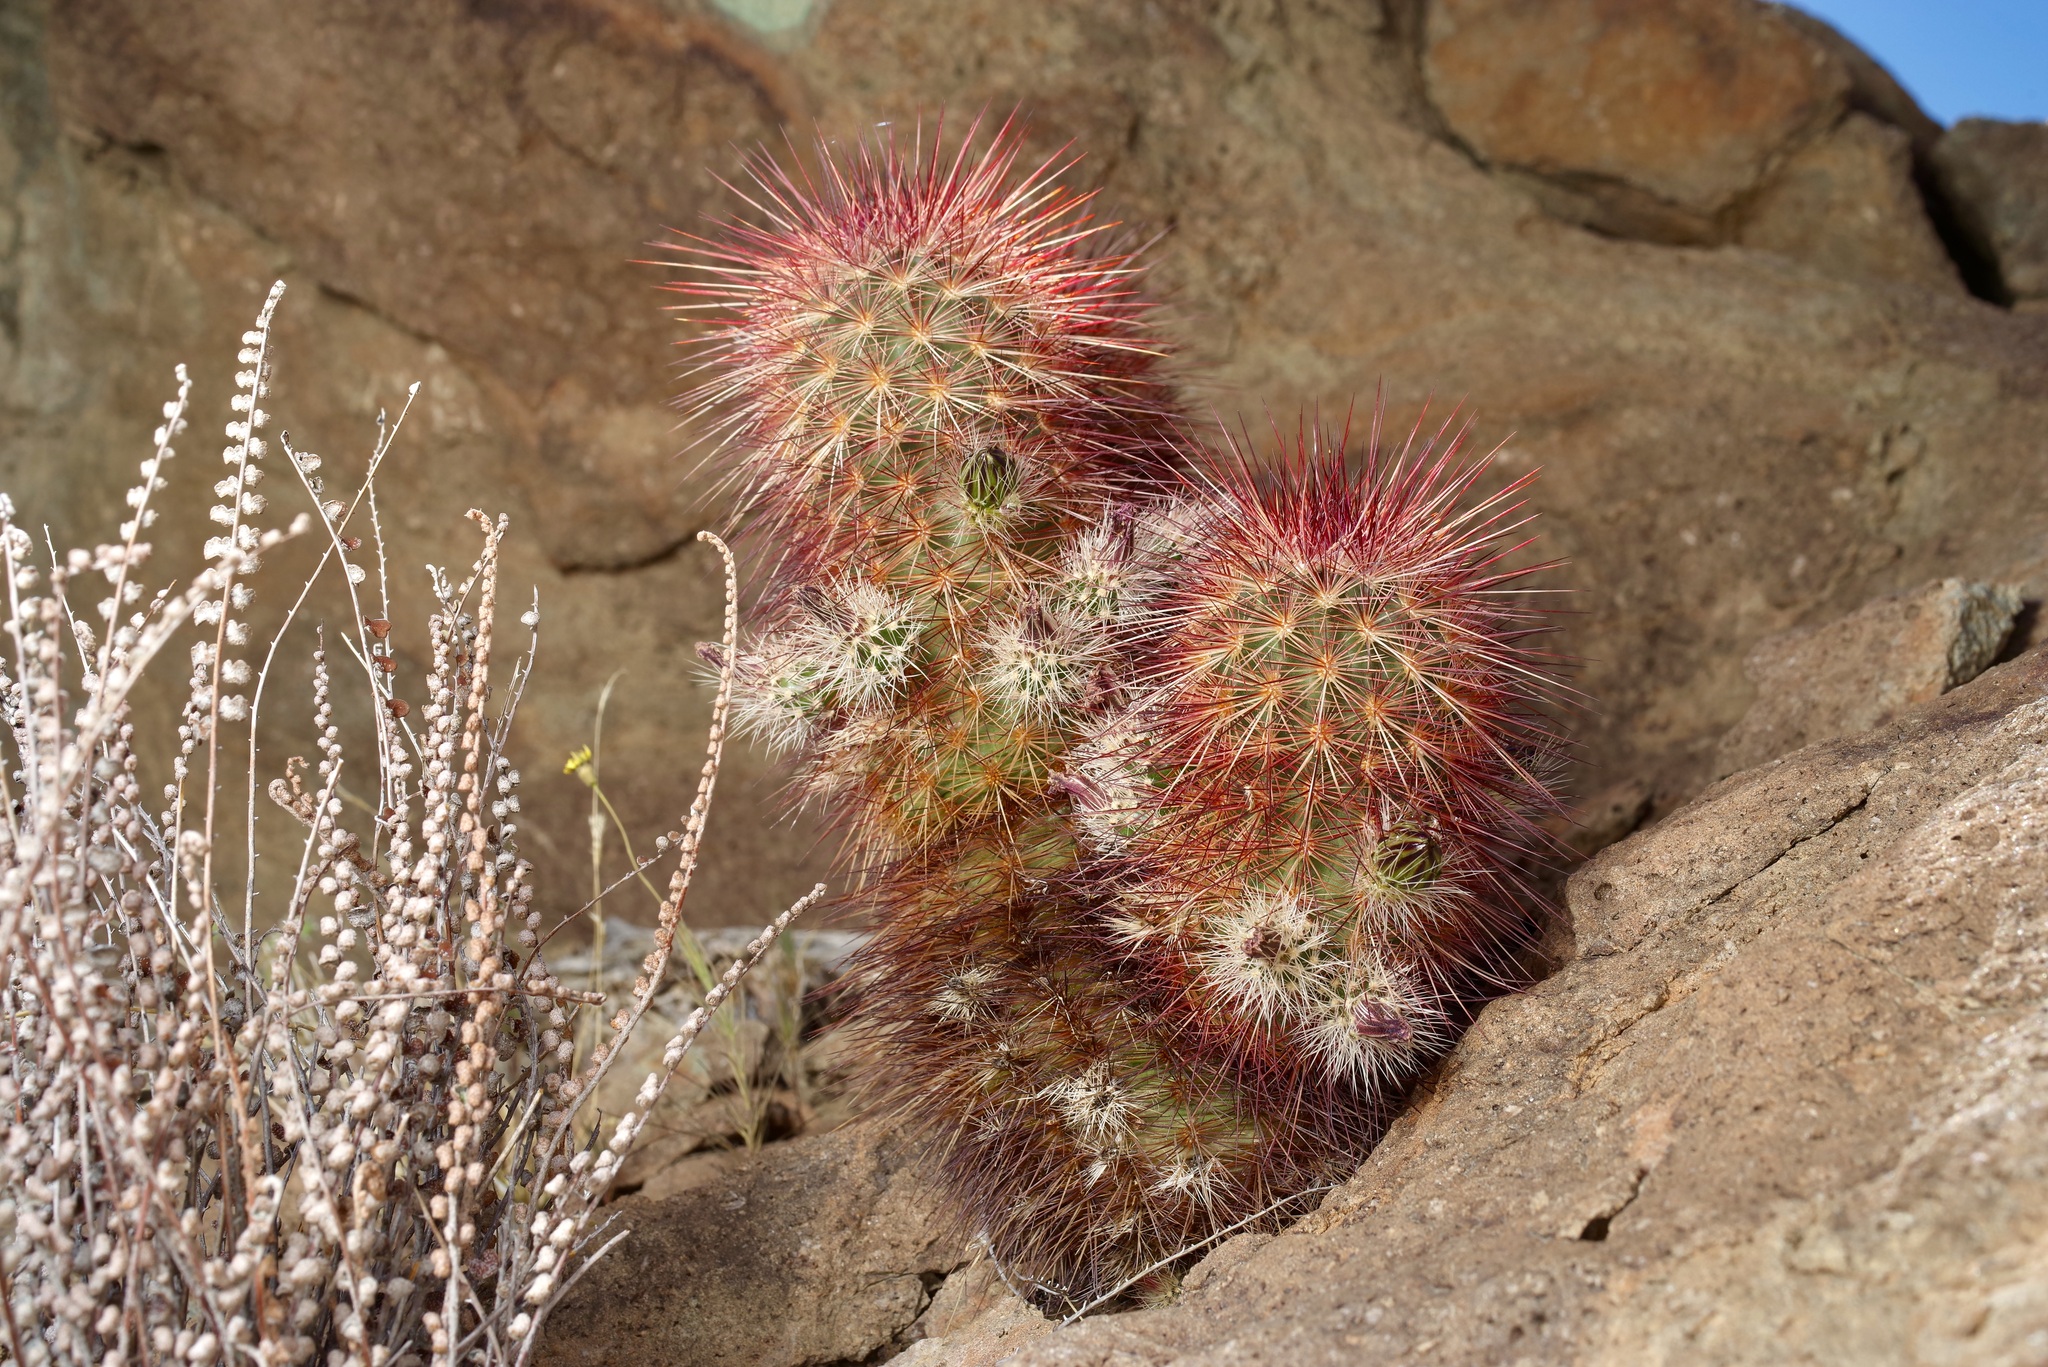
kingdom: Plantae
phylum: Tracheophyta
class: Magnoliopsida
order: Caryophyllales
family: Cactaceae
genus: Echinocereus
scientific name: Echinocereus russanthus
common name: Brownspine hedgehog cactus
